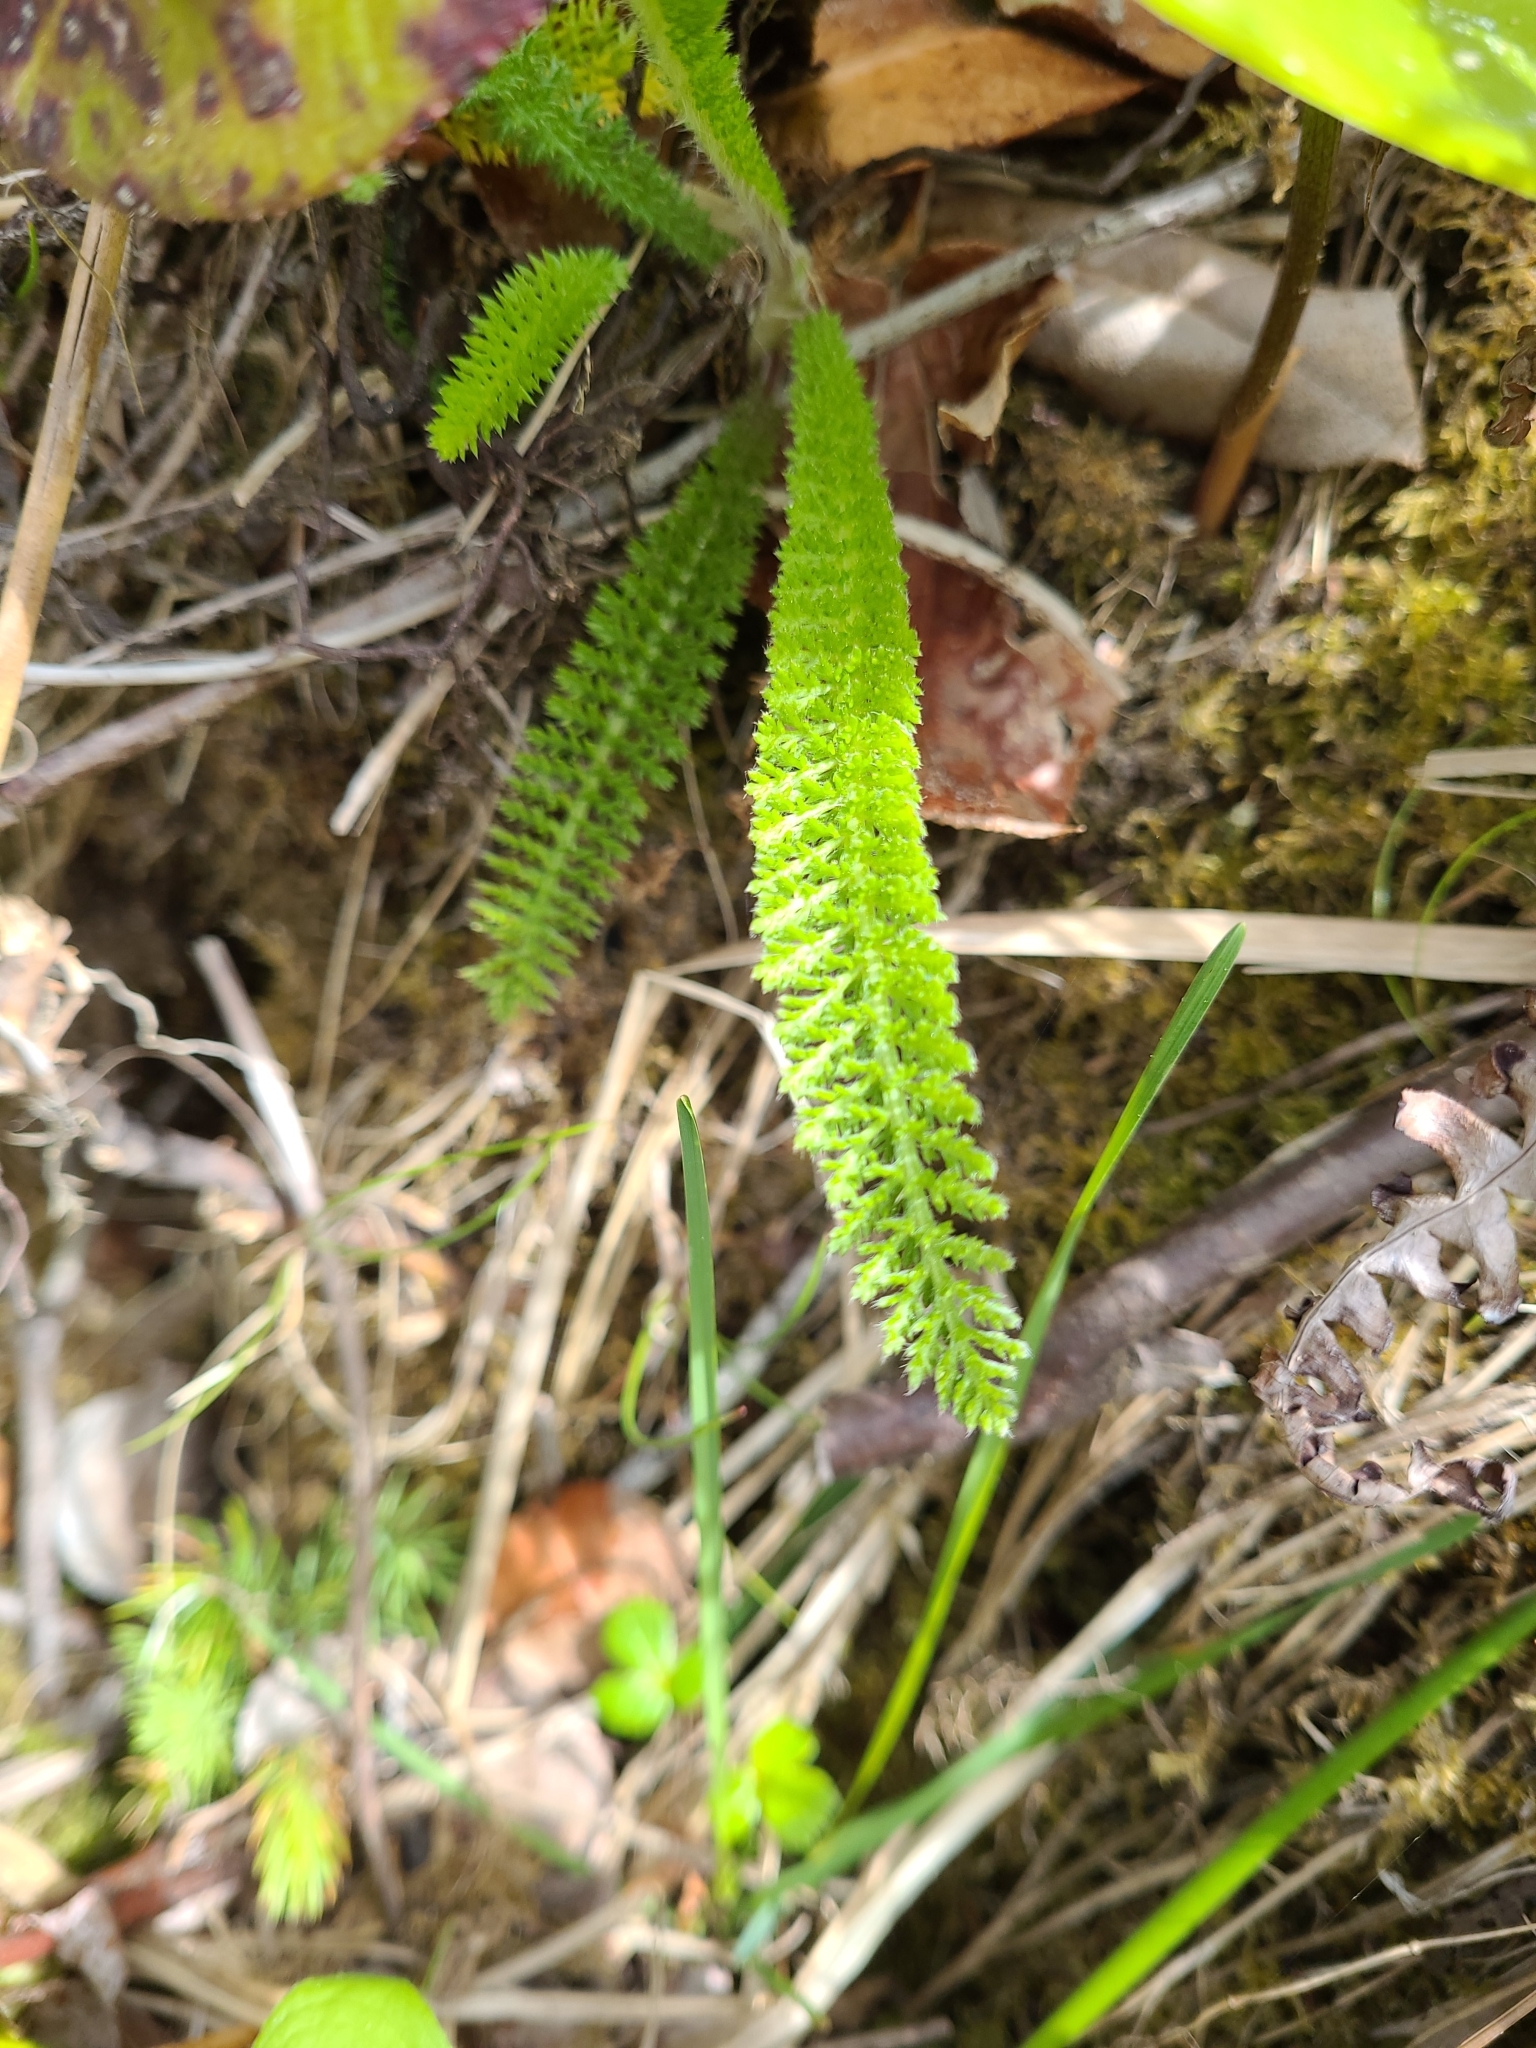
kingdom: Plantae
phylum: Tracheophyta
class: Magnoliopsida
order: Asterales
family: Asteraceae
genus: Achillea
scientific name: Achillea millefolium
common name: Yarrow
